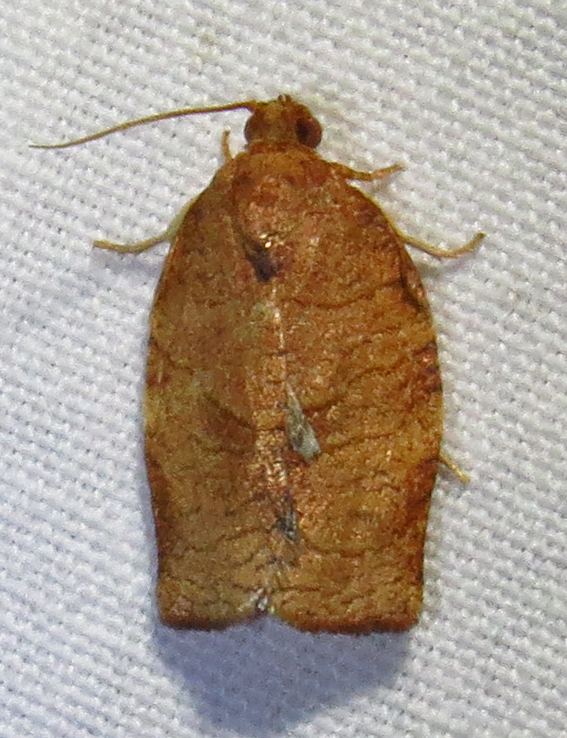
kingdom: Animalia
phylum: Arthropoda
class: Insecta
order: Lepidoptera
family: Tortricidae
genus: Choristoneura
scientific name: Choristoneura rosaceana
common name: Oblique-banded leafroller moth
